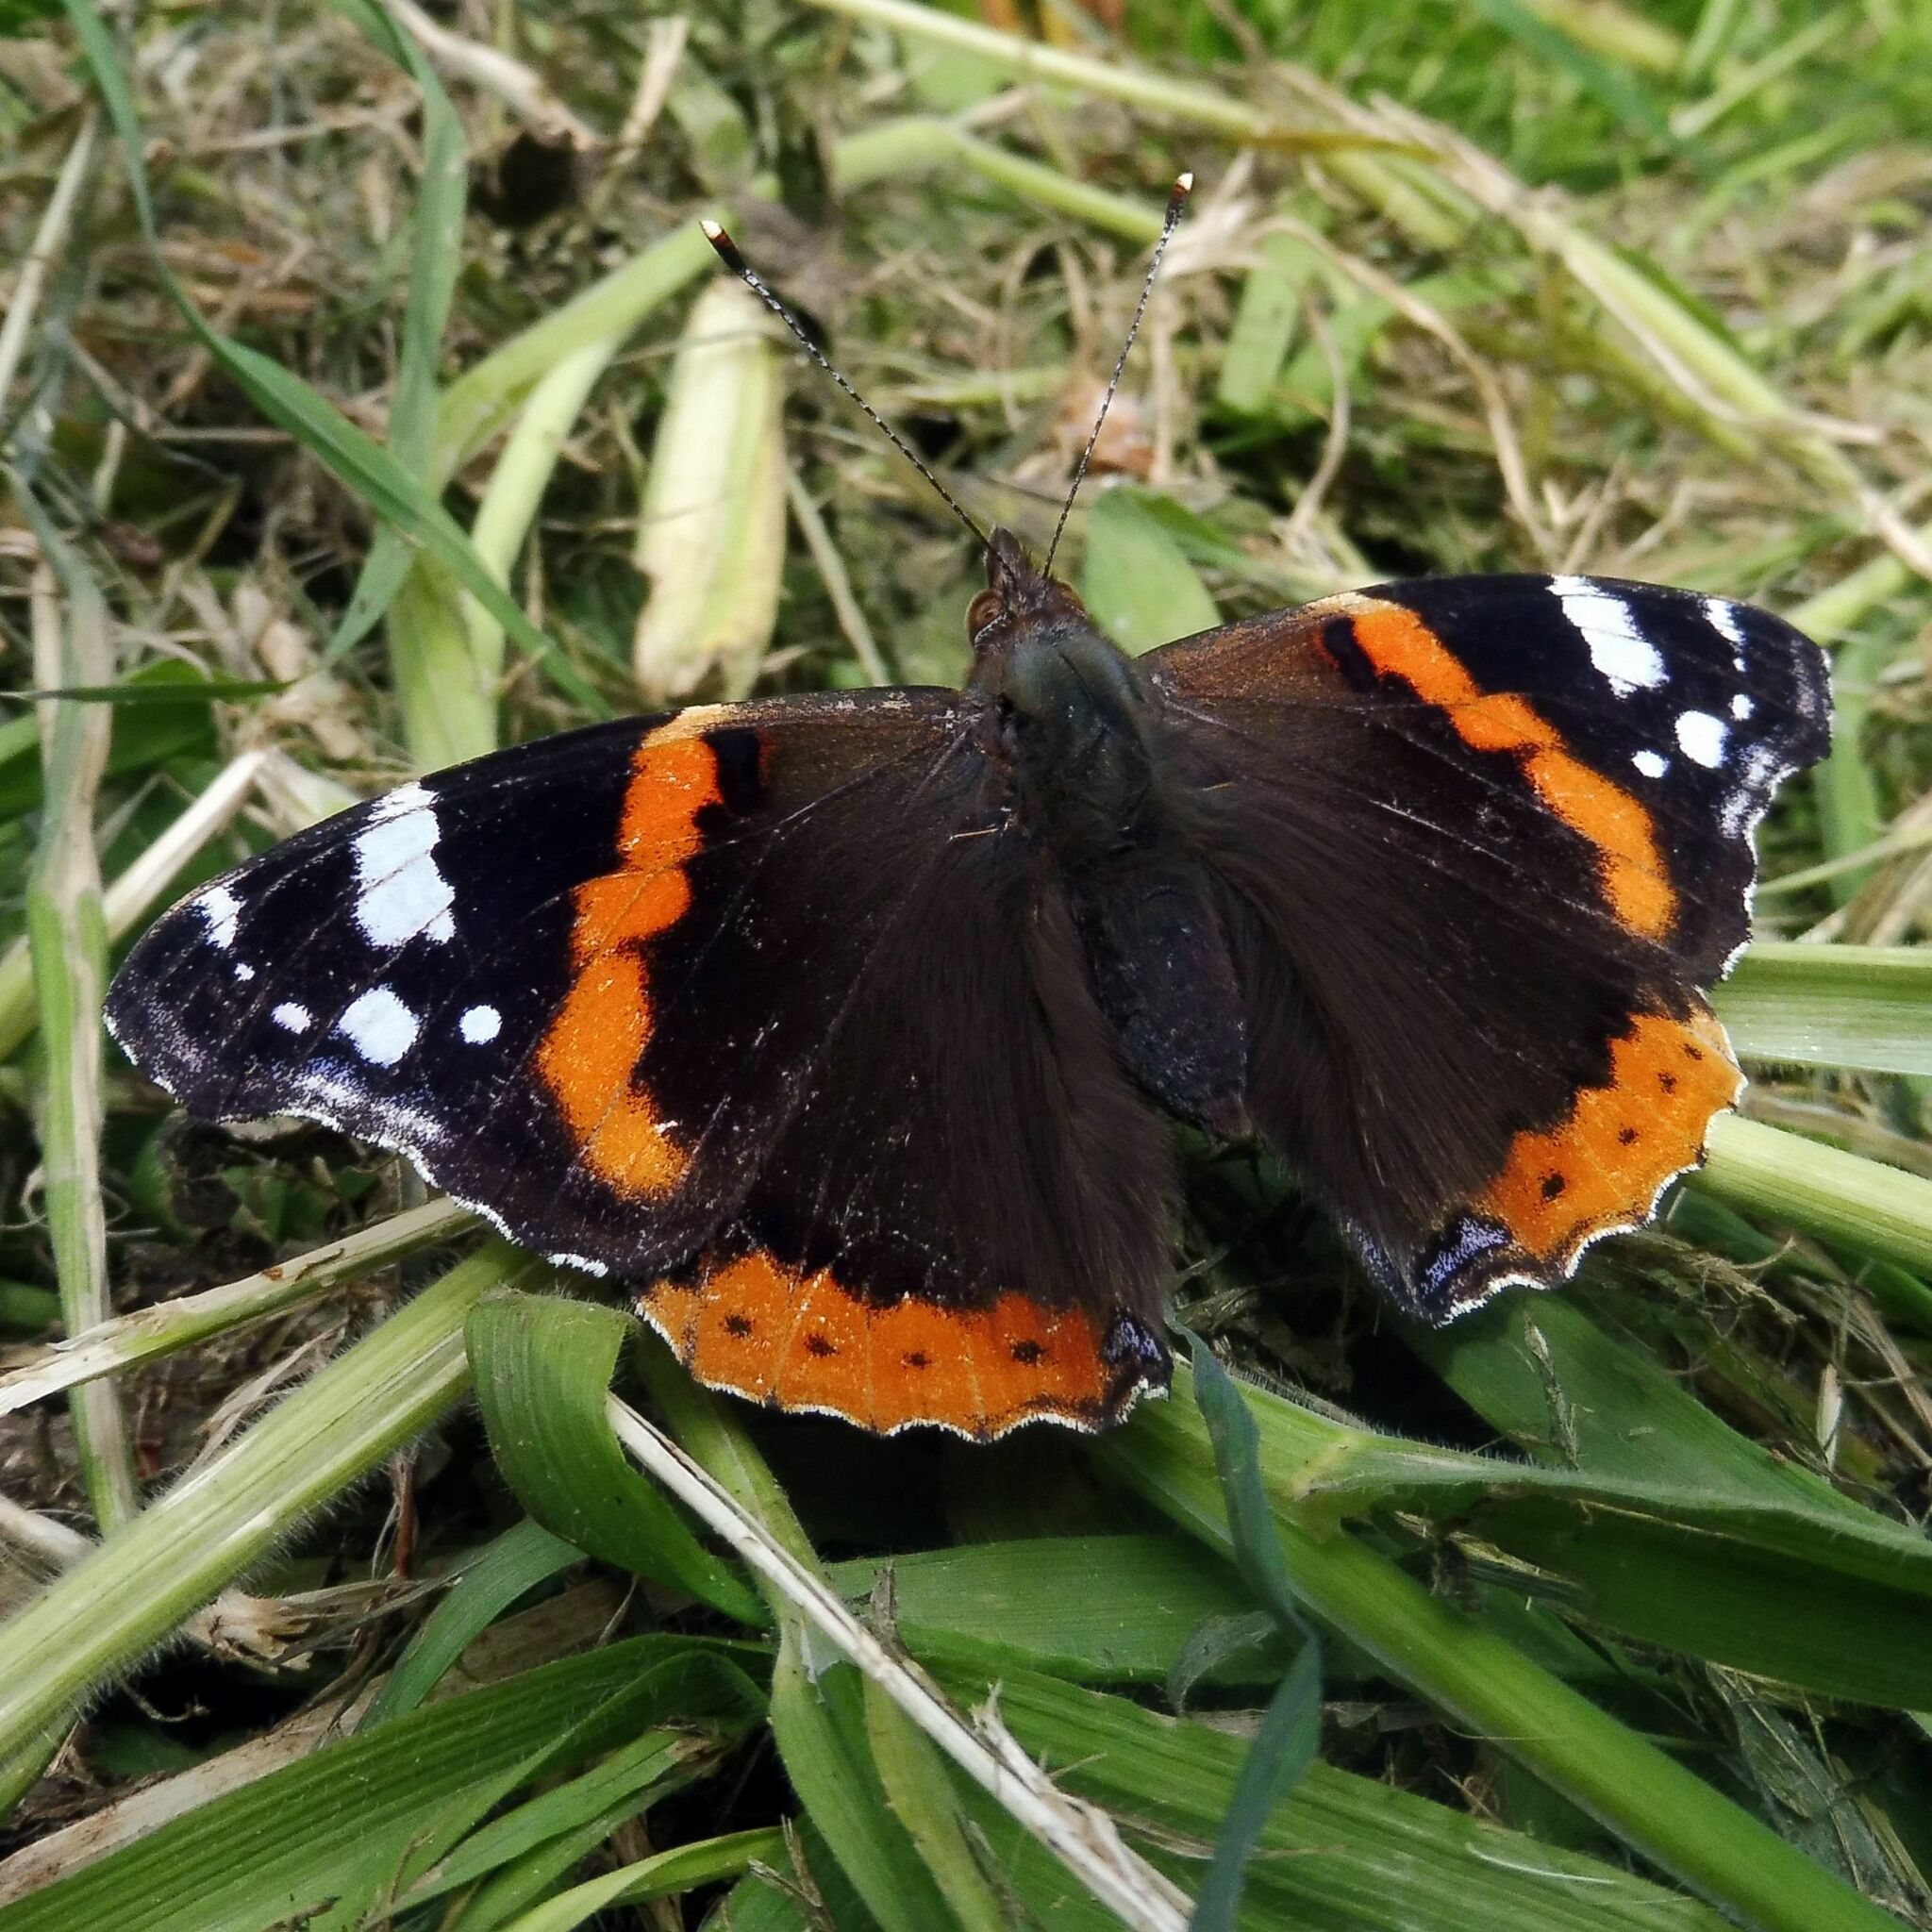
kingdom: Animalia
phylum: Arthropoda
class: Insecta
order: Lepidoptera
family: Nymphalidae
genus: Vanessa
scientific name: Vanessa atalanta
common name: Red admiral
